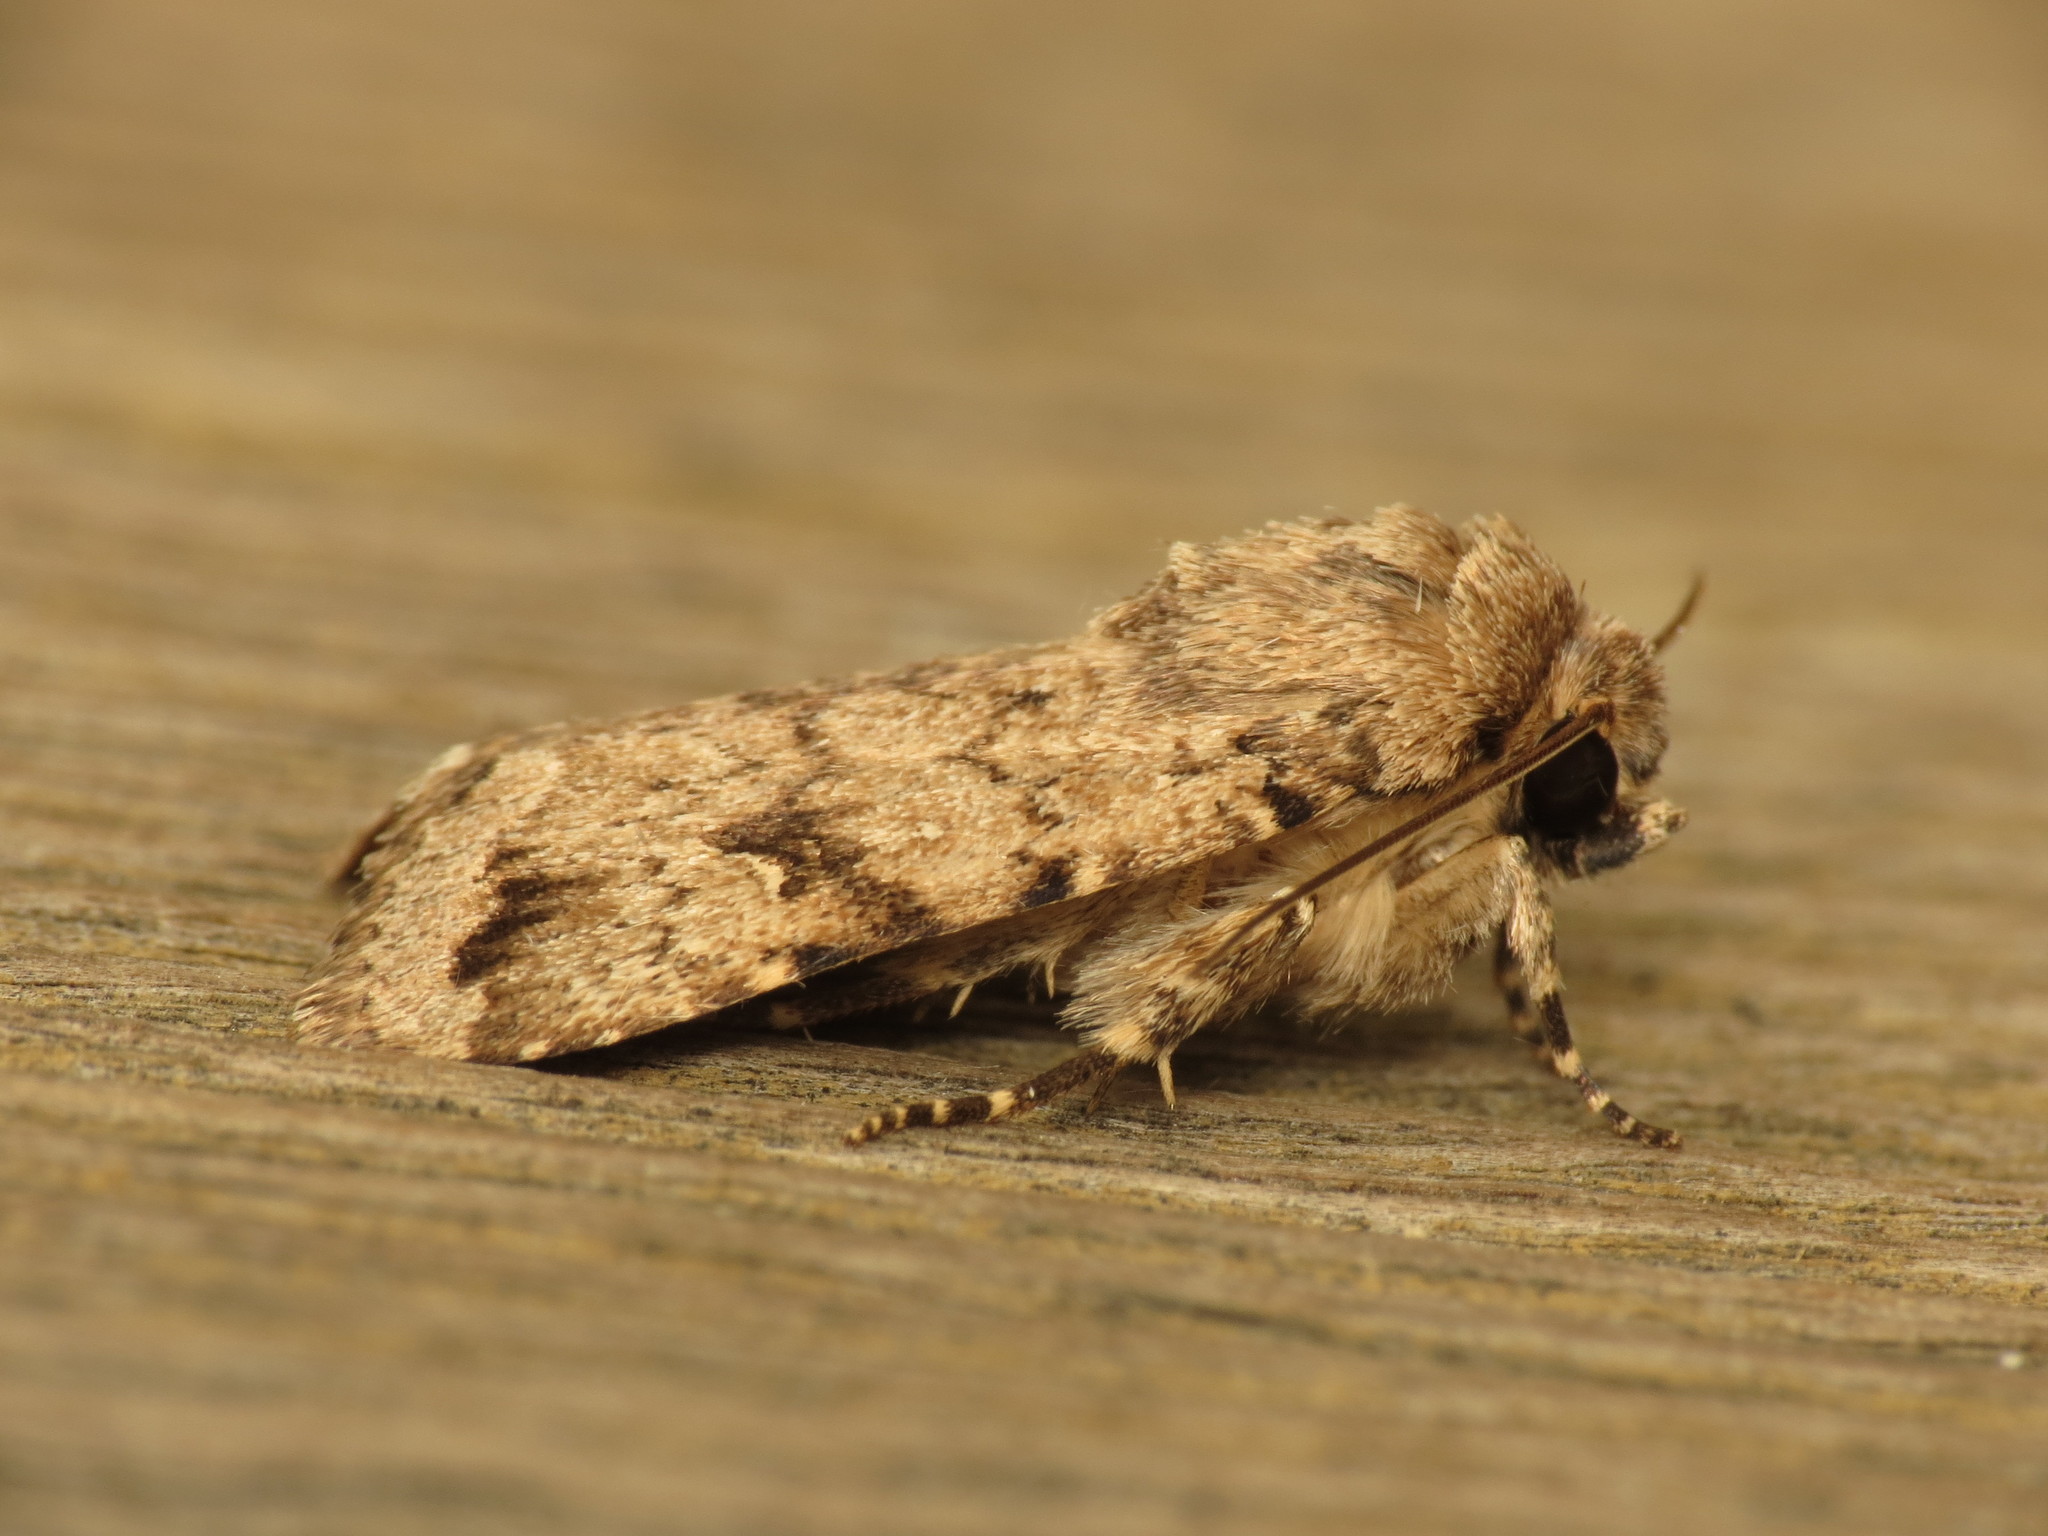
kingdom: Animalia
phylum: Arthropoda
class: Insecta
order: Lepidoptera
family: Noctuidae
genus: Proteuxoa
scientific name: Proteuxoa capularis
